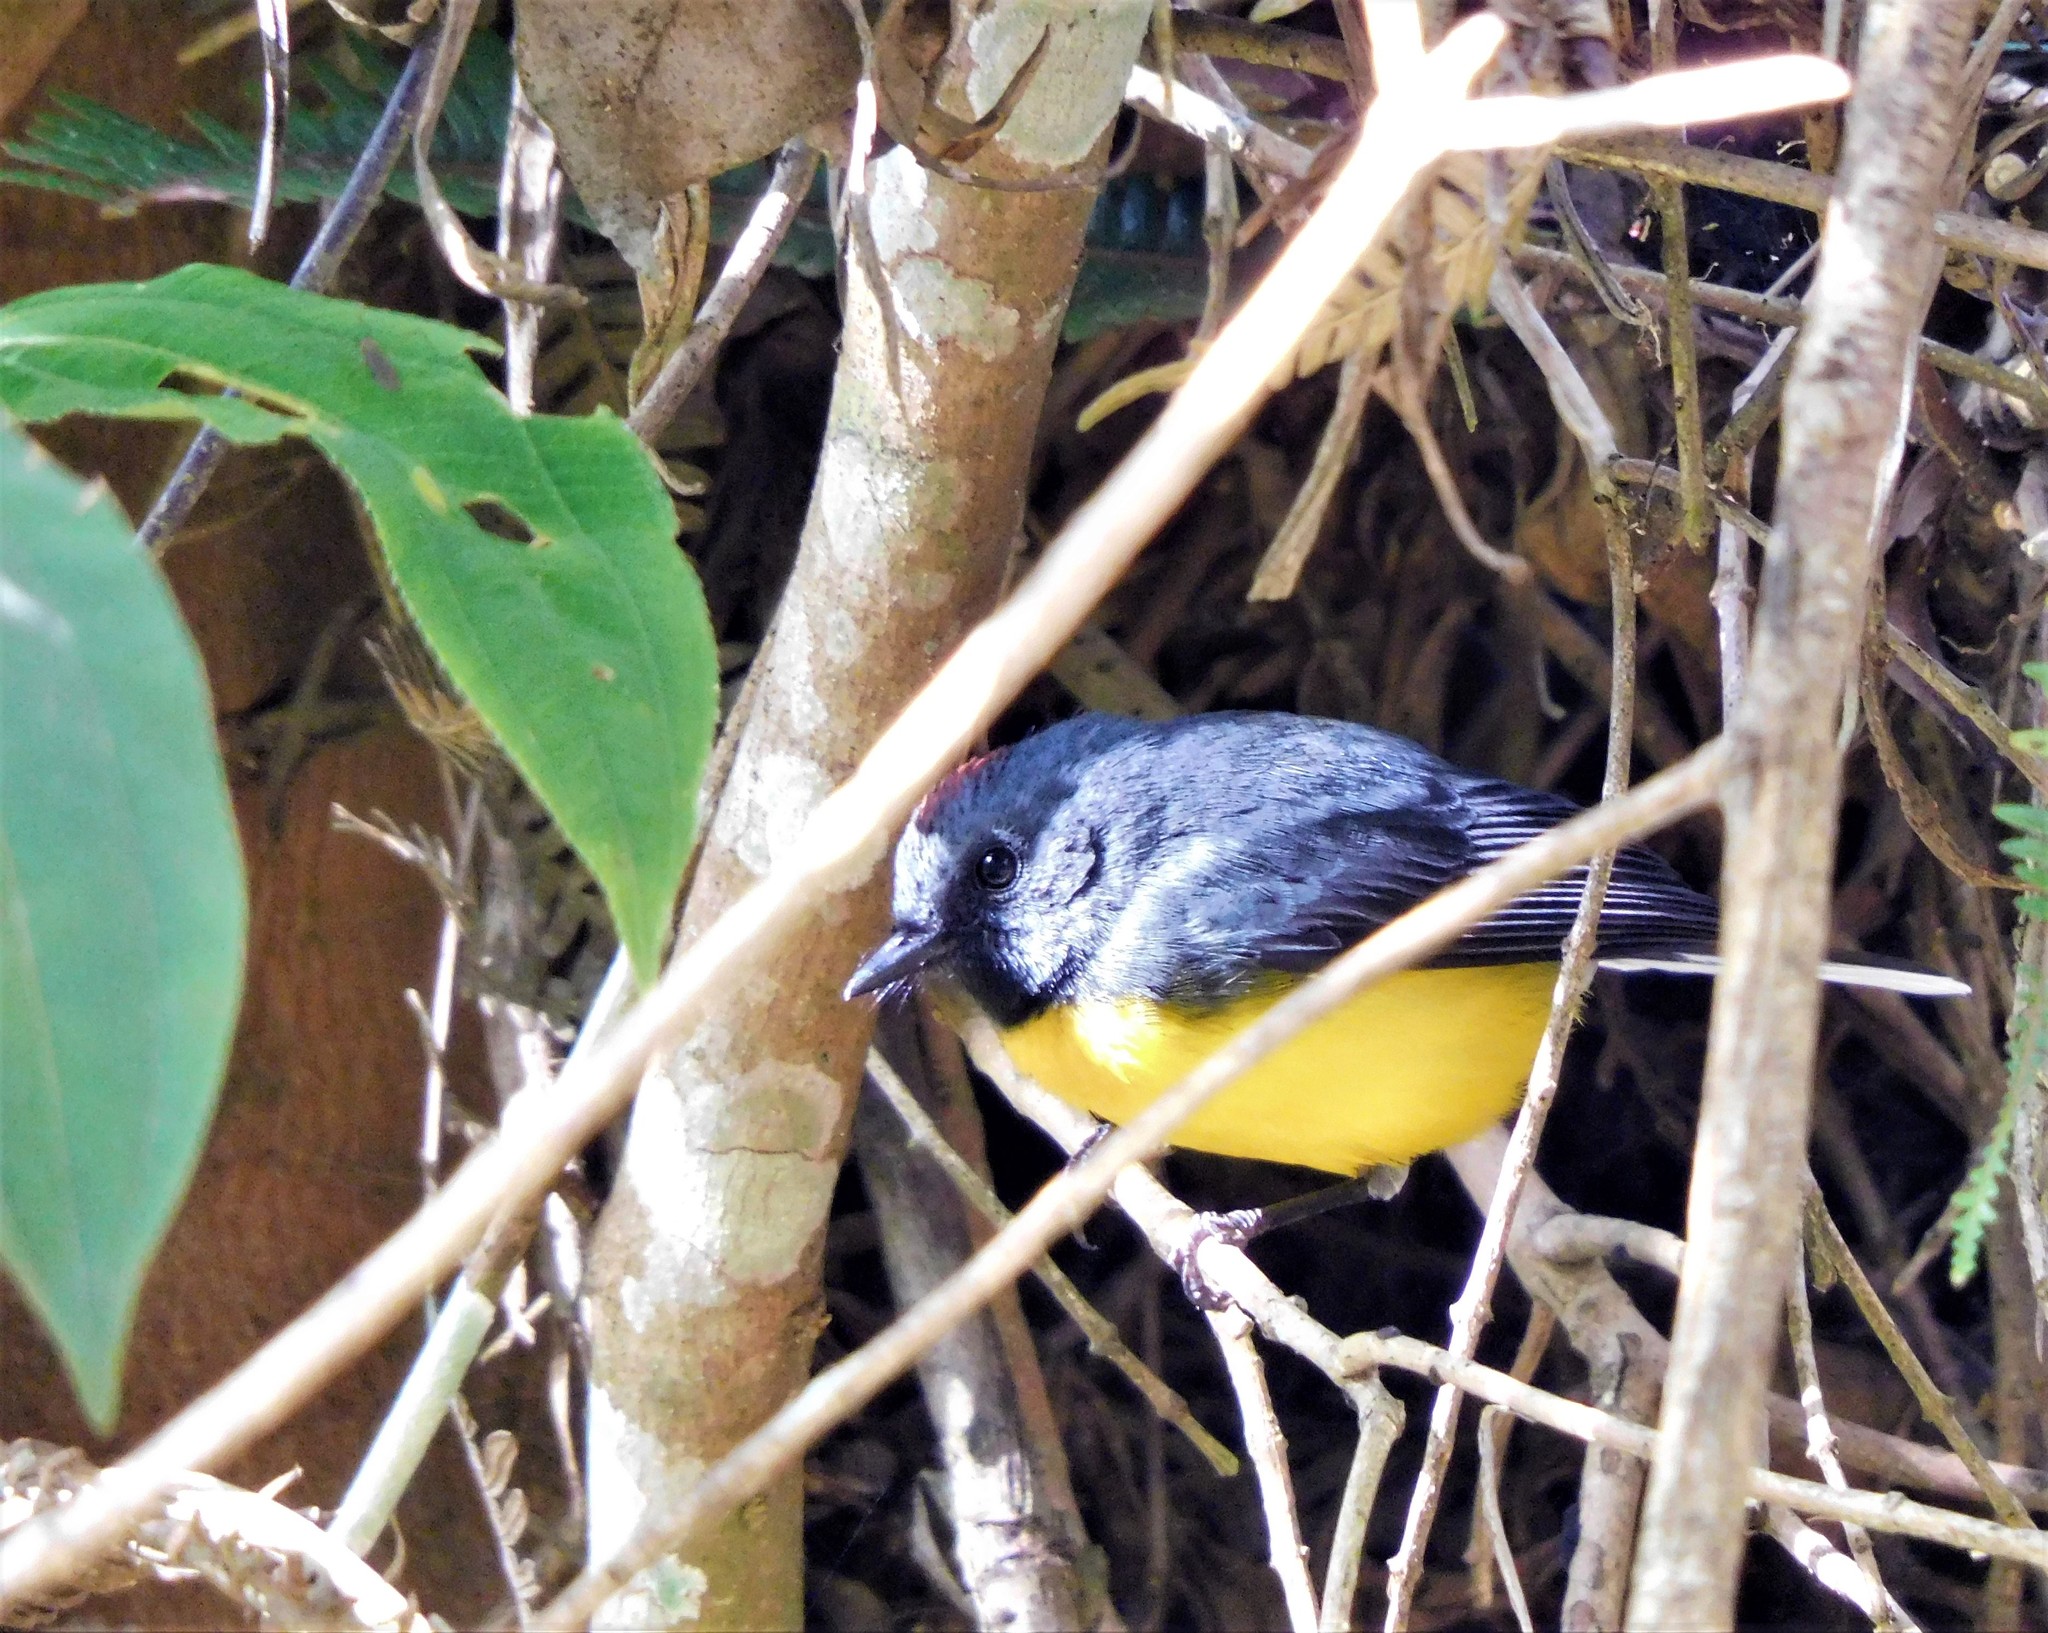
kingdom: Animalia
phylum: Chordata
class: Aves
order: Passeriformes
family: Parulidae
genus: Myioborus
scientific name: Myioborus miniatus
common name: Slate-throated redstart
